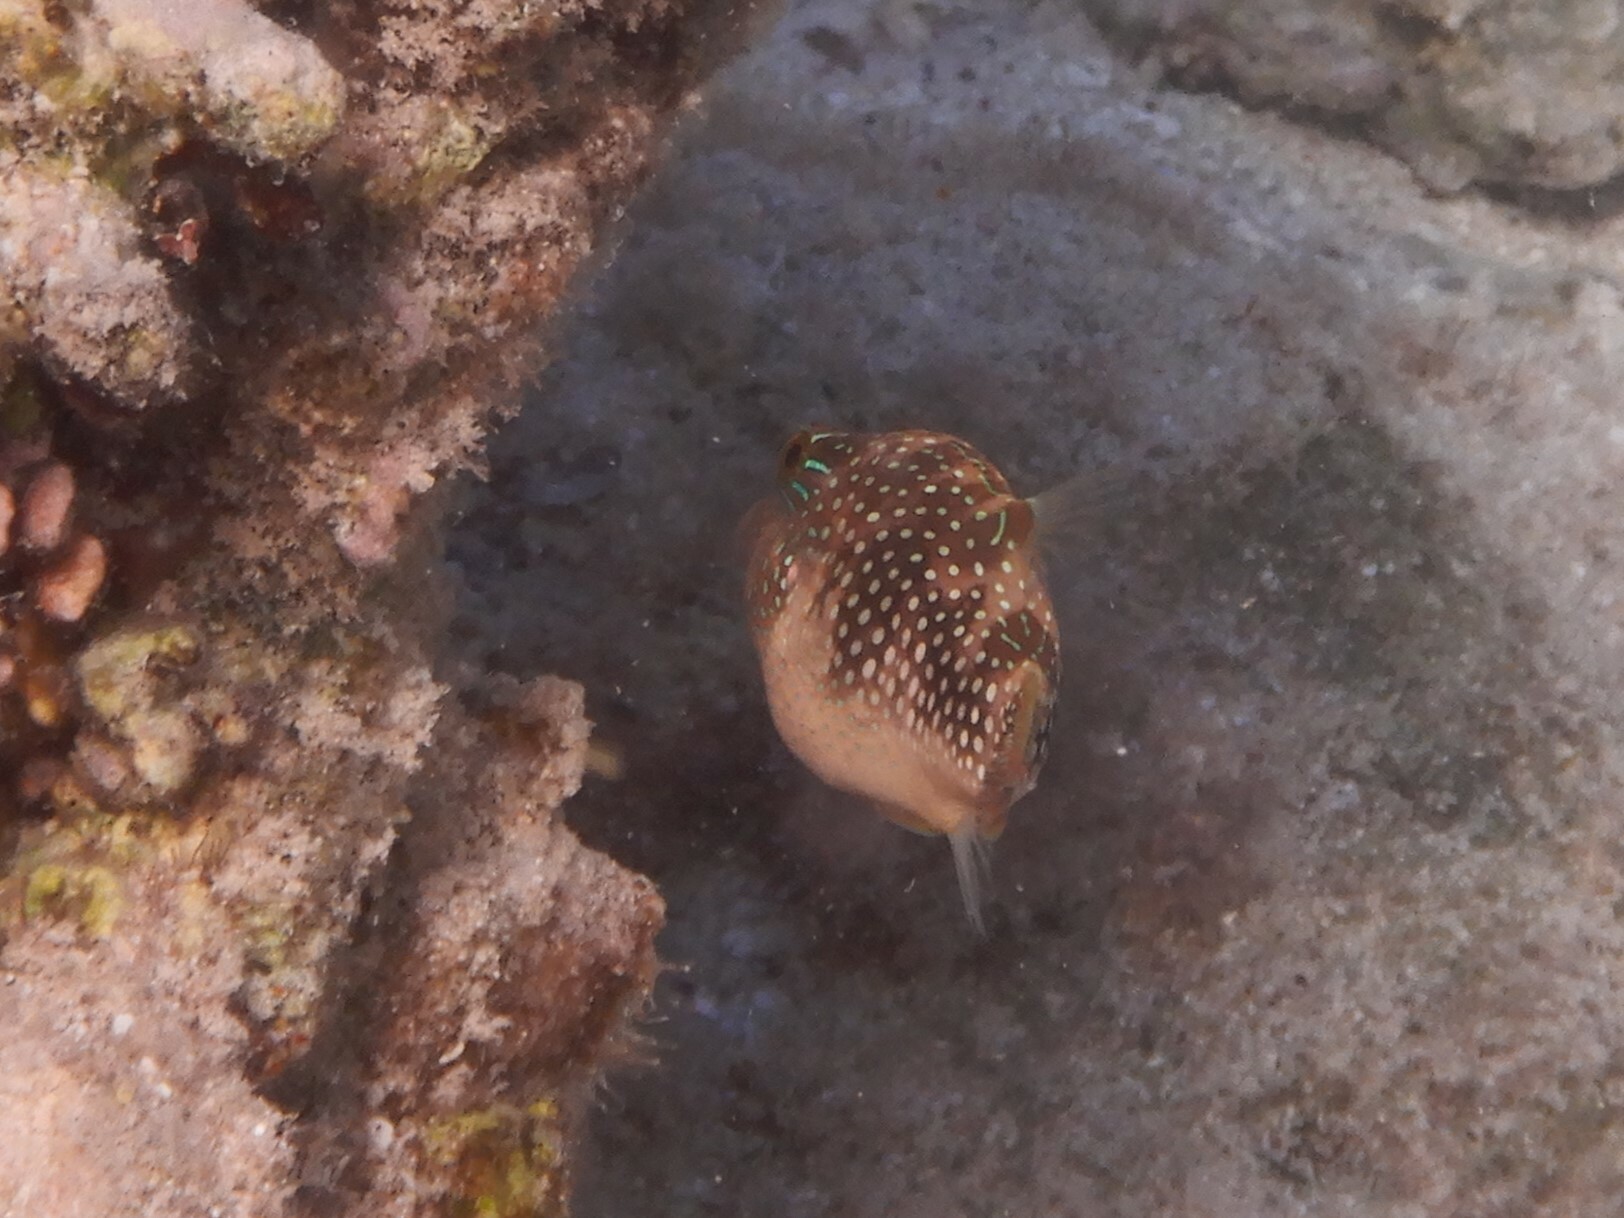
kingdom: Animalia
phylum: Chordata
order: Tetraodontiformes
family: Tetraodontidae
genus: Canthigaster
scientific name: Canthigaster margaritata
